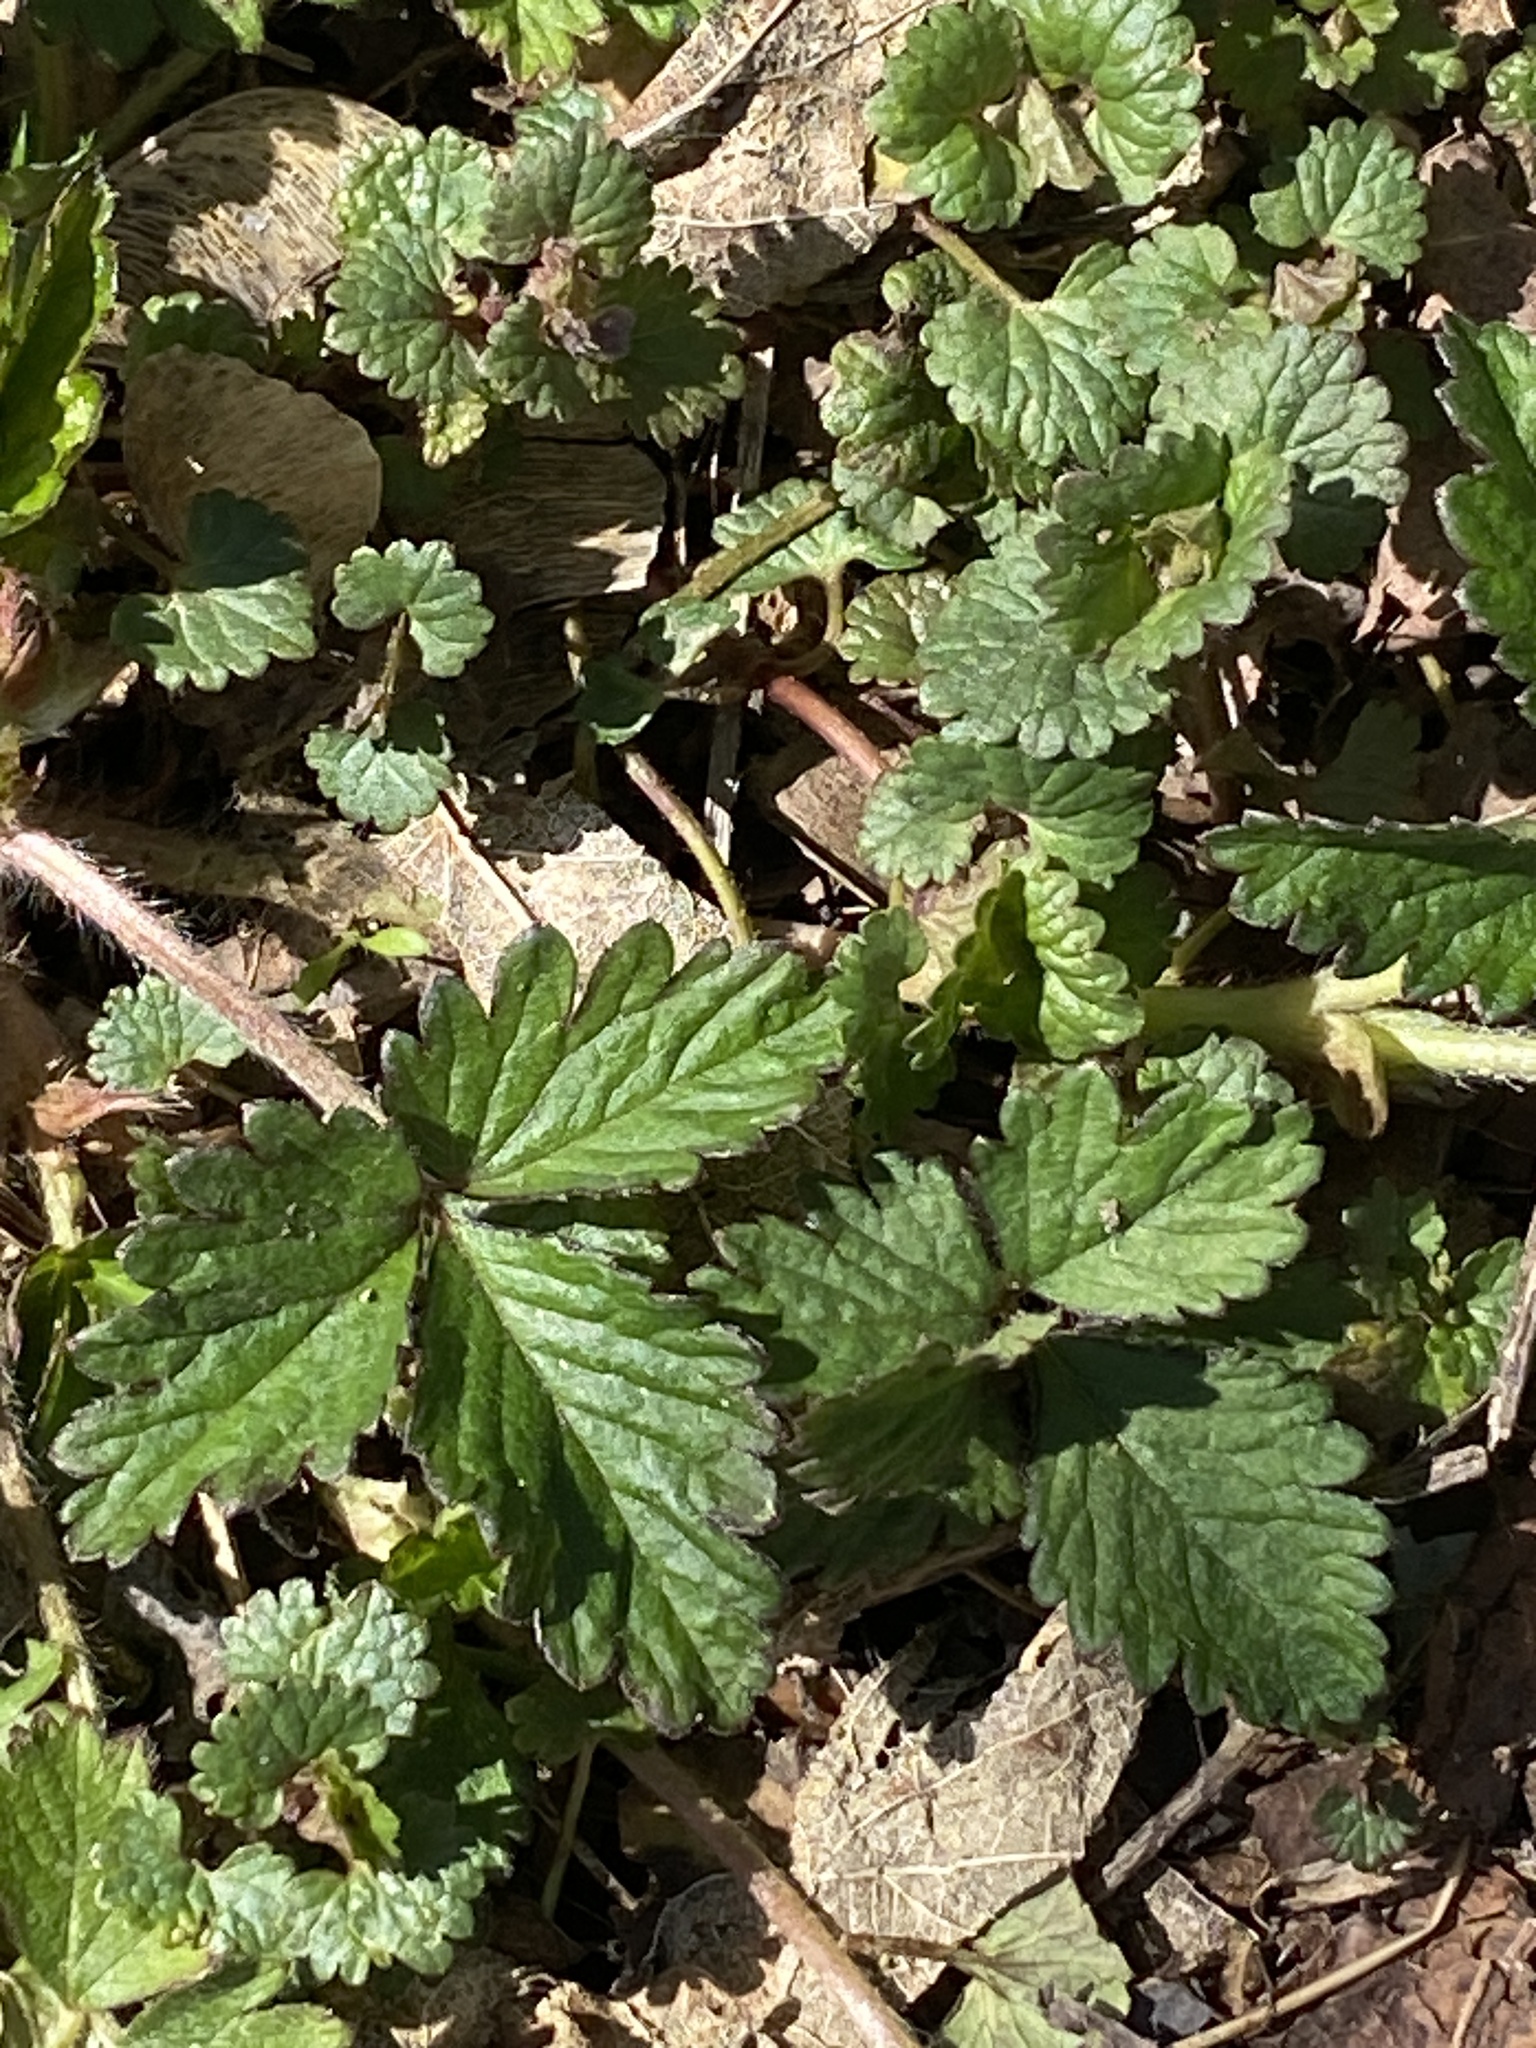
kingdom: Plantae
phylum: Tracheophyta
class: Magnoliopsida
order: Rosales
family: Rosaceae
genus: Potentilla
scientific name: Potentilla indica
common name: Yellow-flowered strawberry
